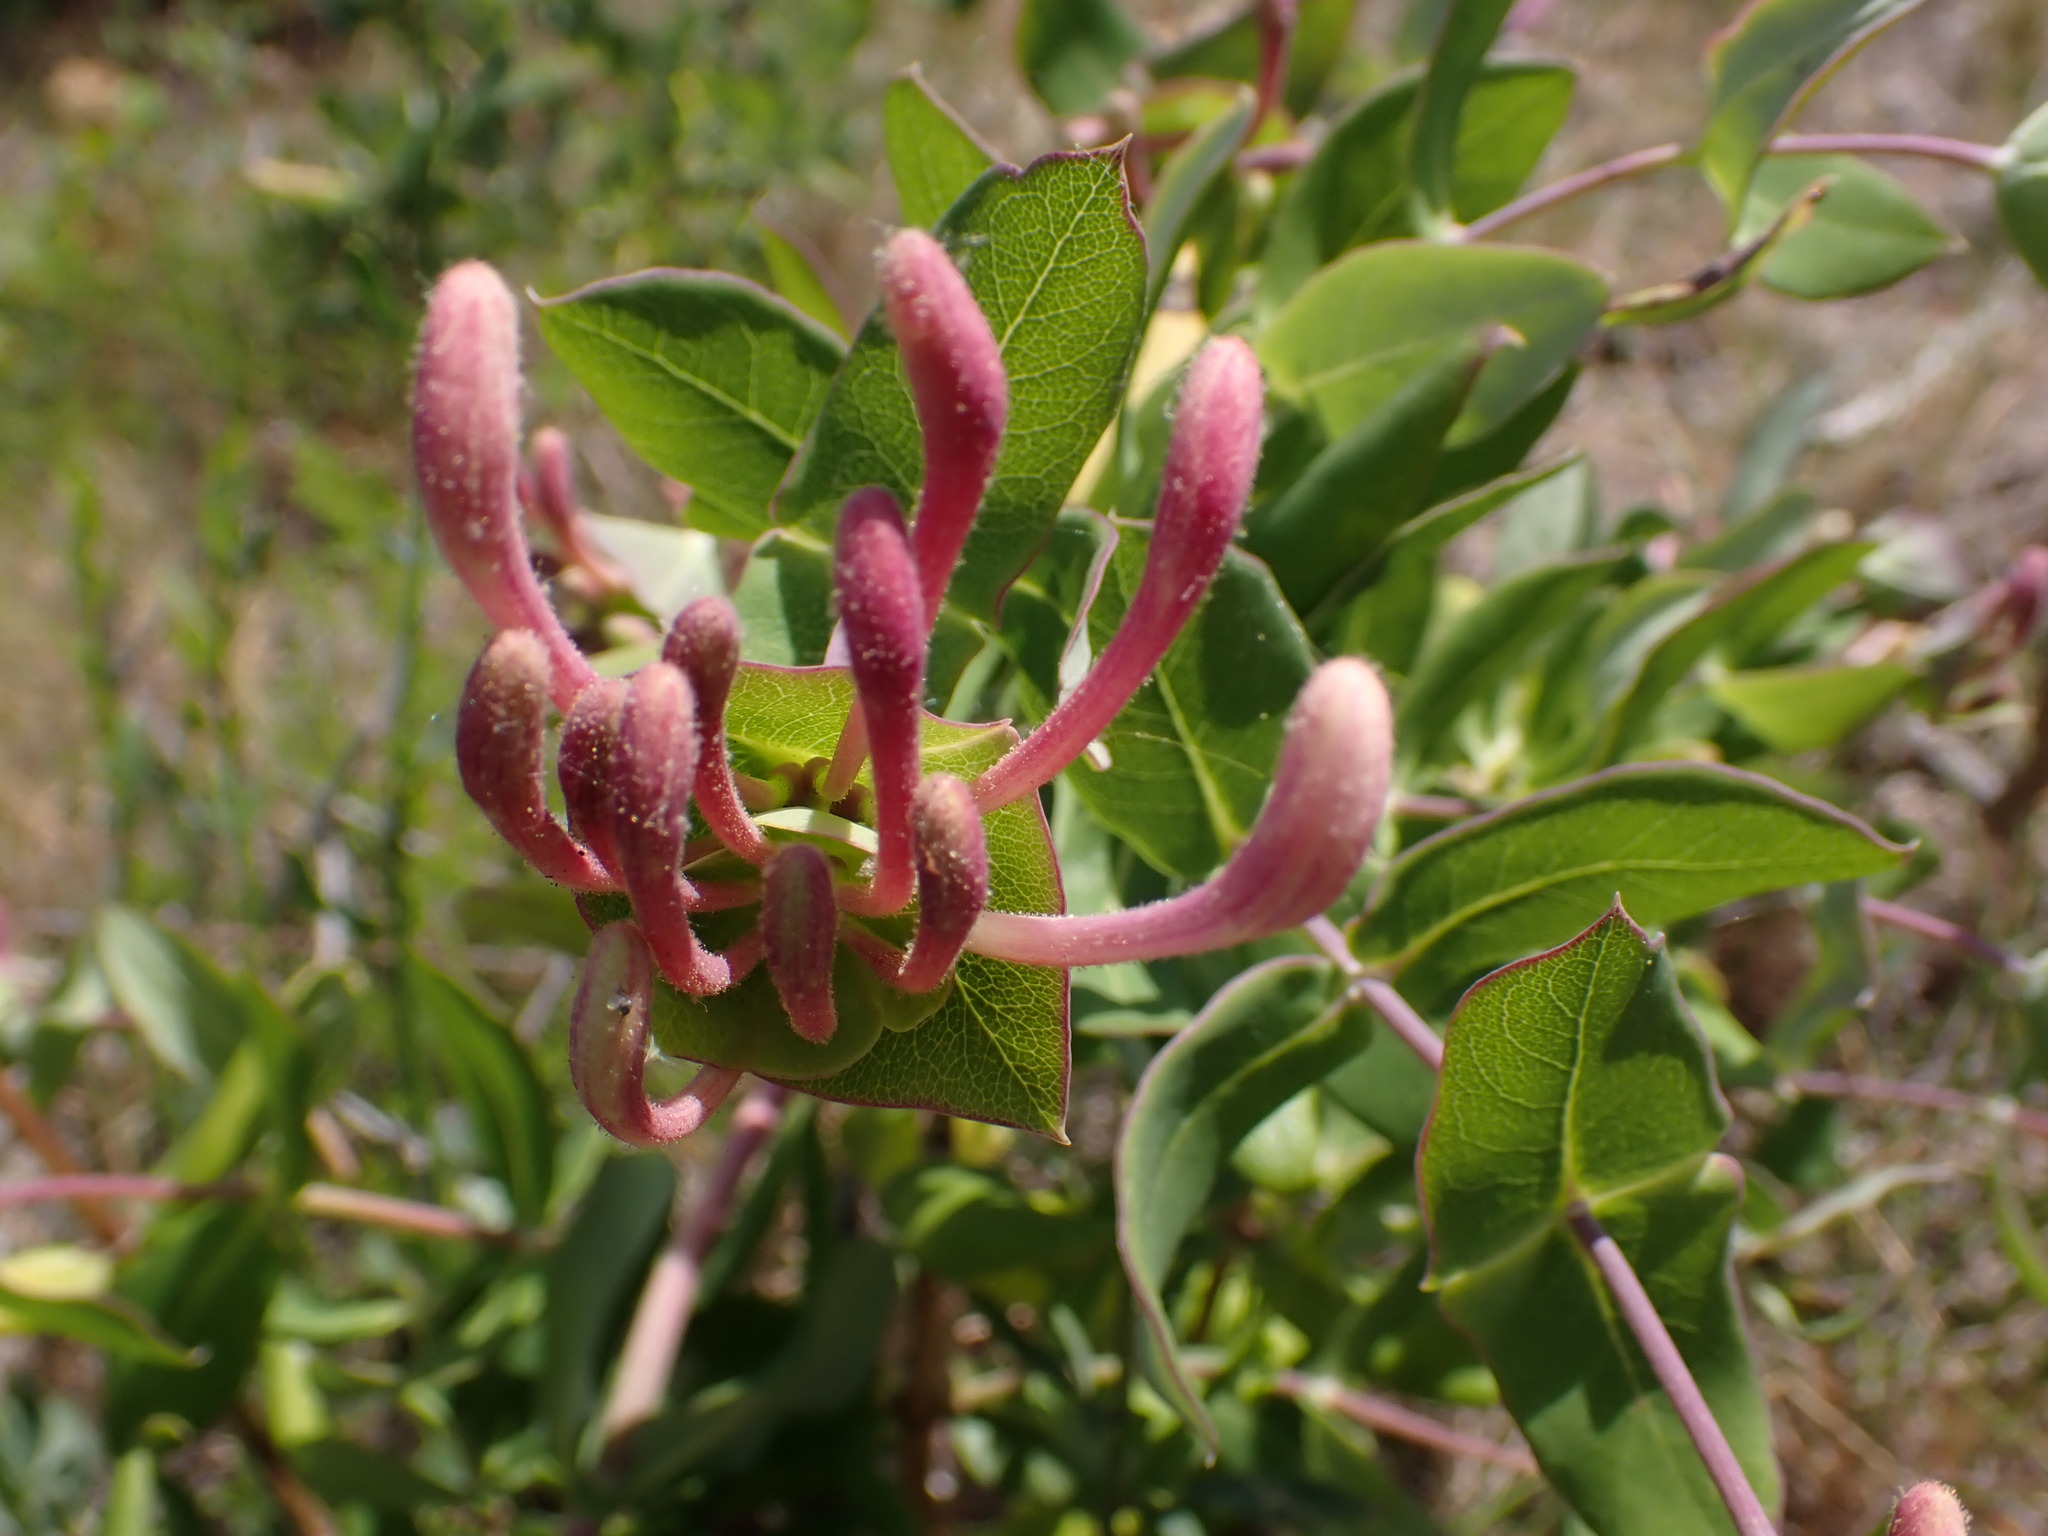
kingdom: Plantae
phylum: Tracheophyta
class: Magnoliopsida
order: Dipsacales
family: Caprifoliaceae
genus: Lonicera
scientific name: Lonicera implexa
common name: Minorca honeysuckle
